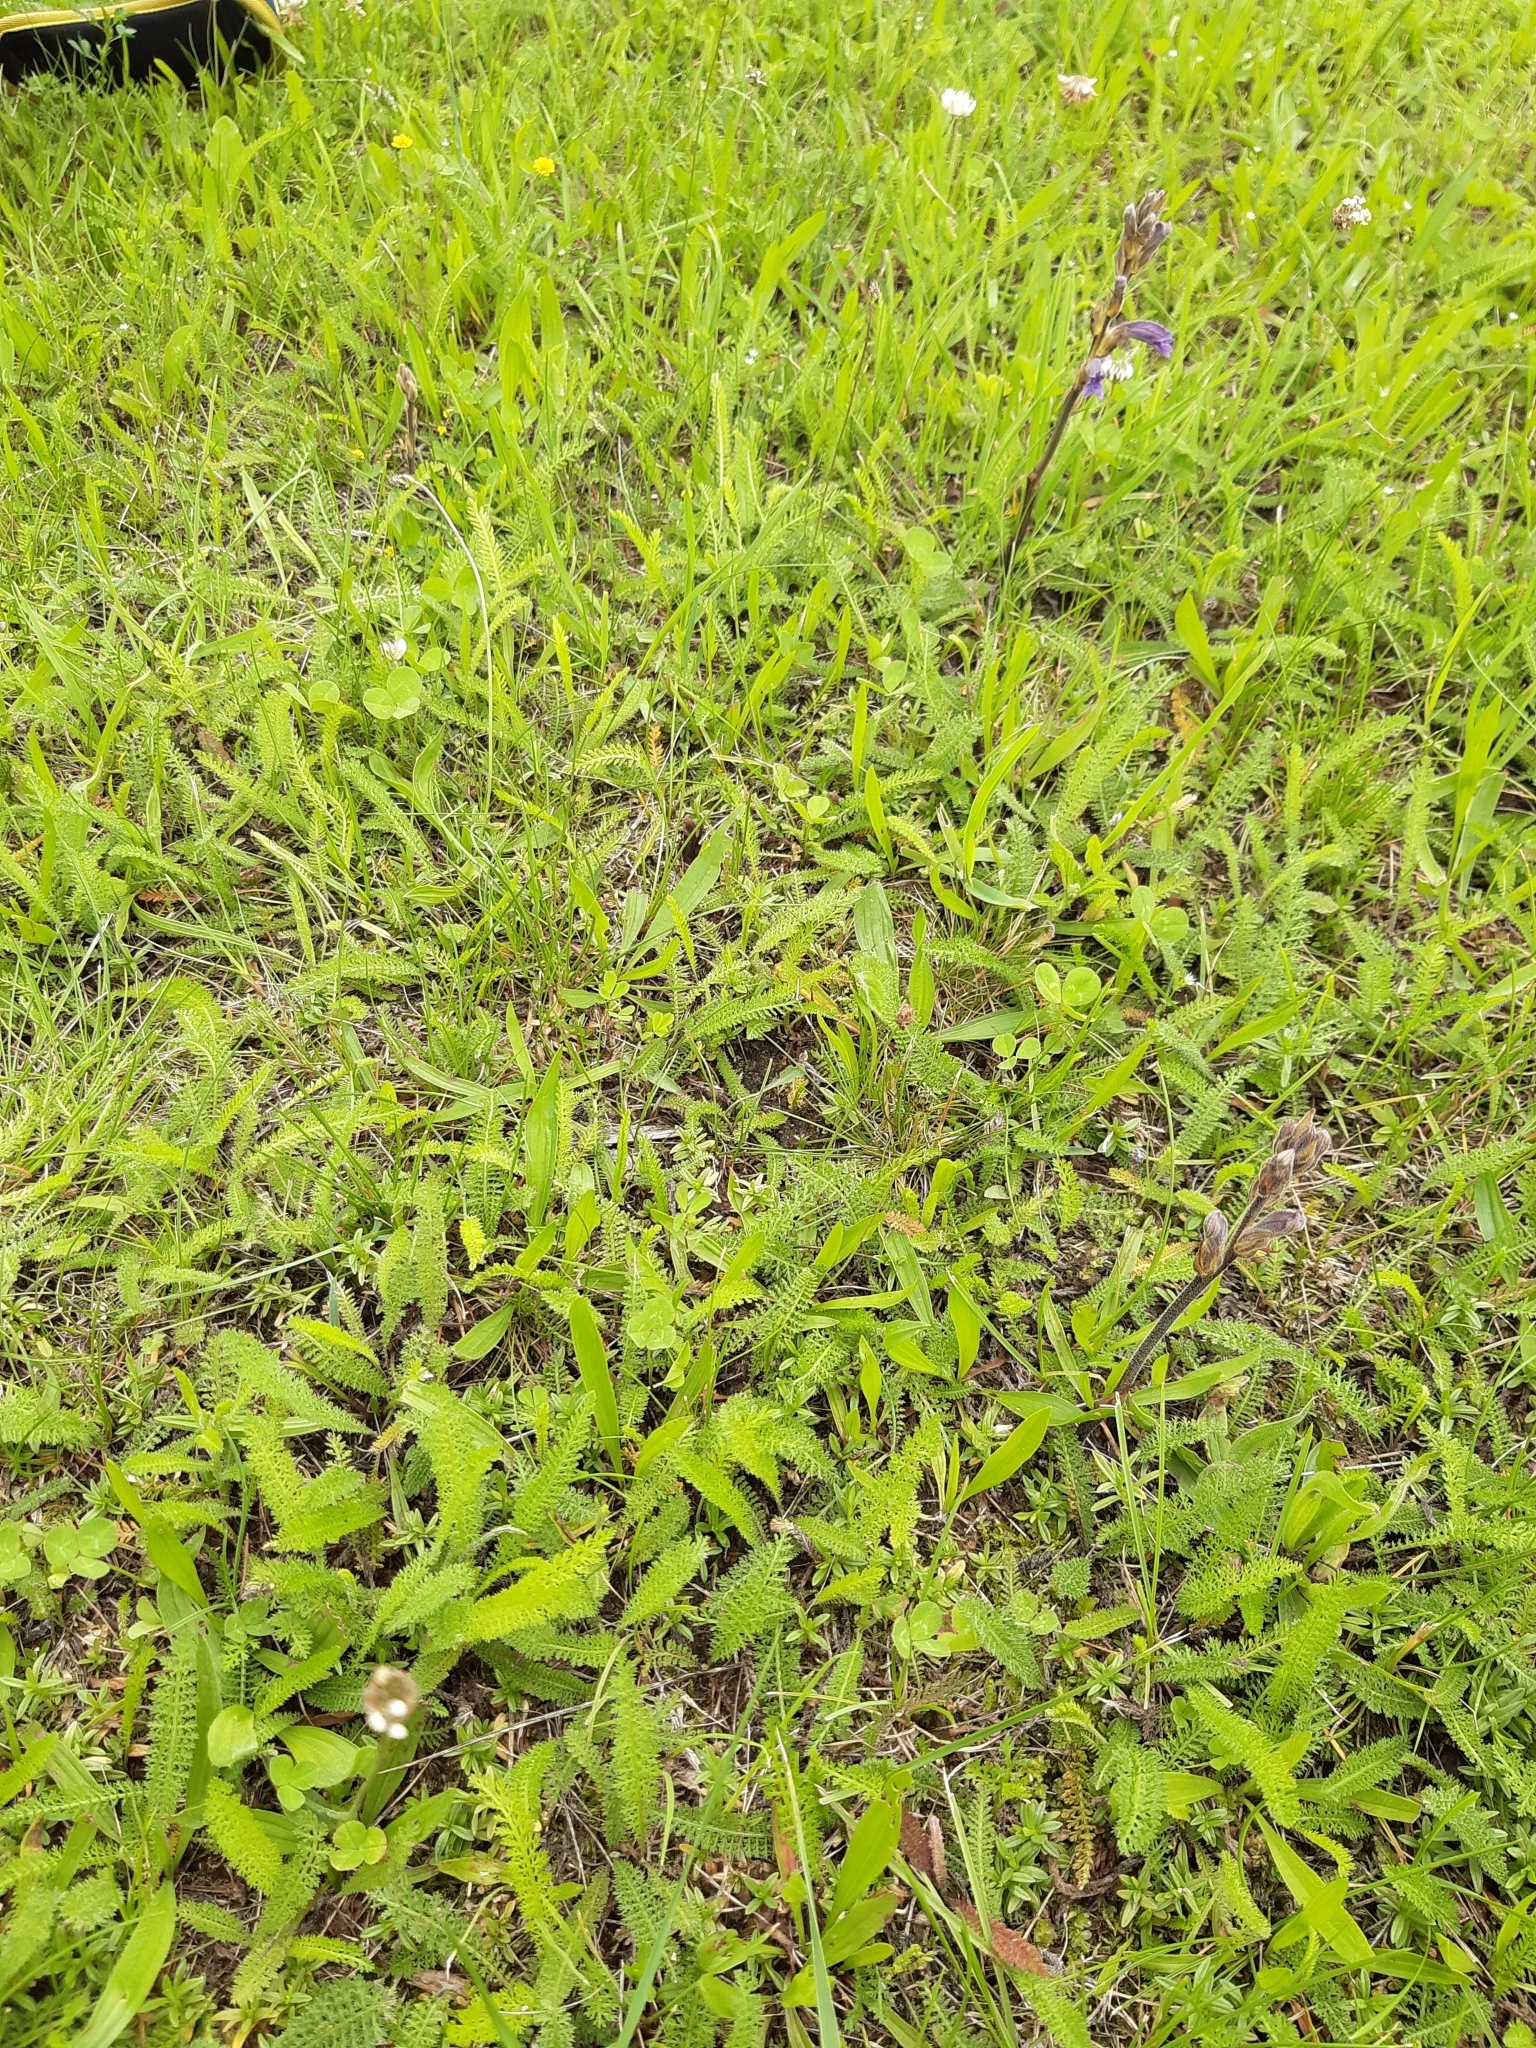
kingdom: Plantae
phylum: Tracheophyta
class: Magnoliopsida
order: Lamiales
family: Orobanchaceae
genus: Phelipanche
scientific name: Phelipanche purpurea
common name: Purple broomrape
